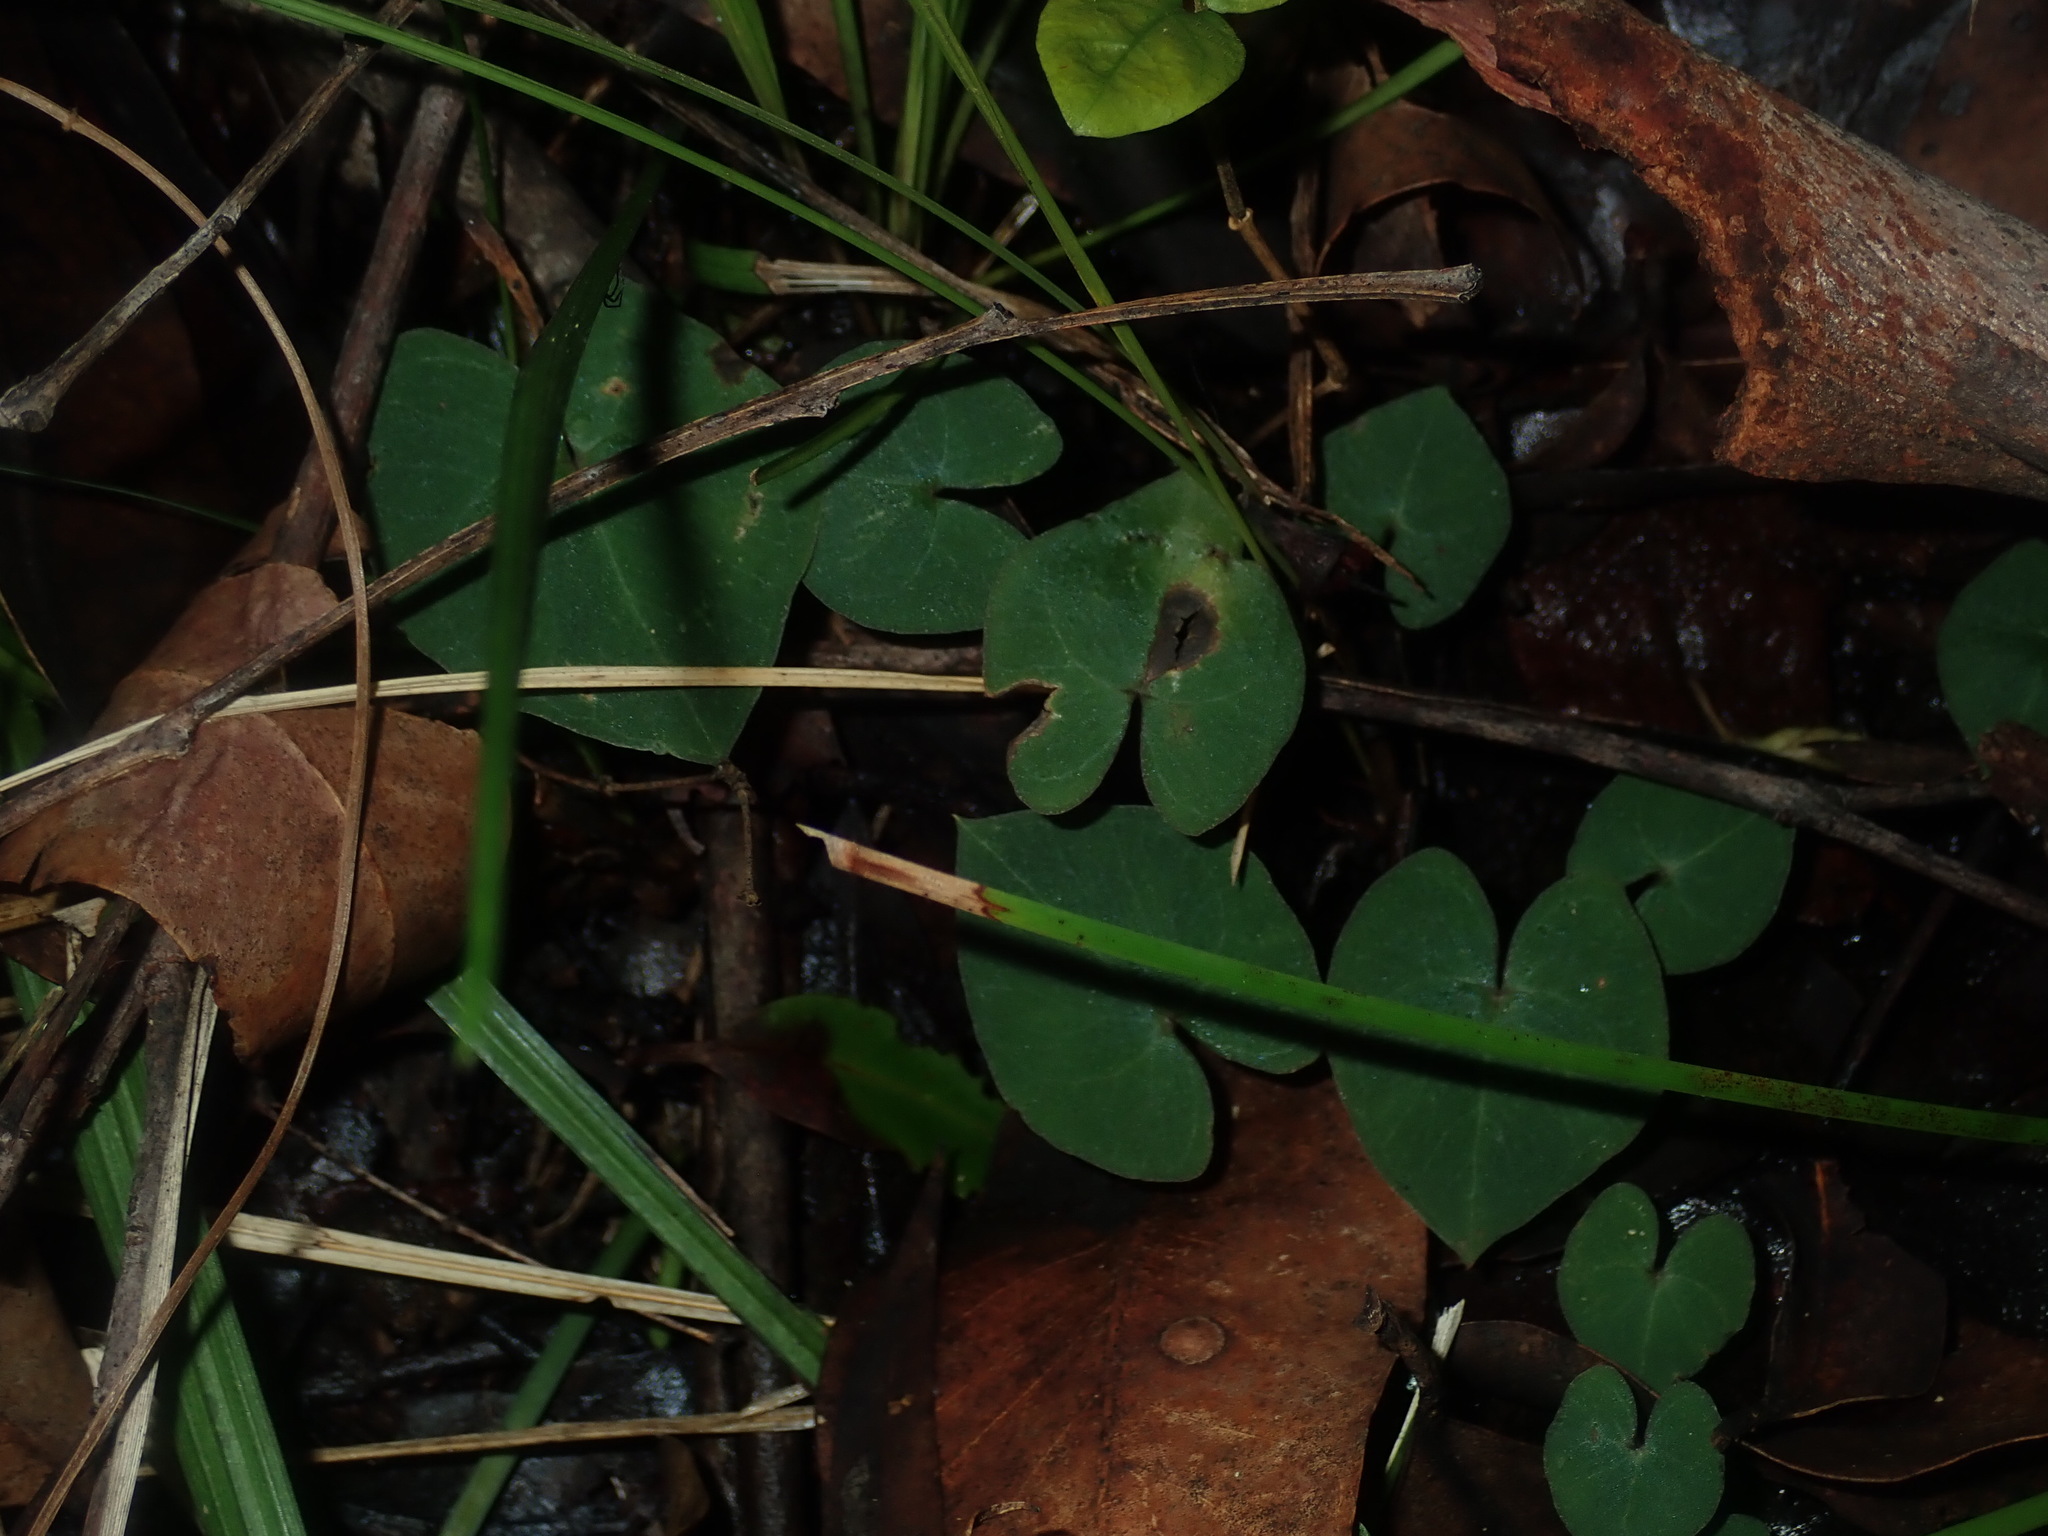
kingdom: Plantae
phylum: Tracheophyta
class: Liliopsida
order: Asparagales
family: Orchidaceae
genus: Acianthus
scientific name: Acianthus fornicatus
